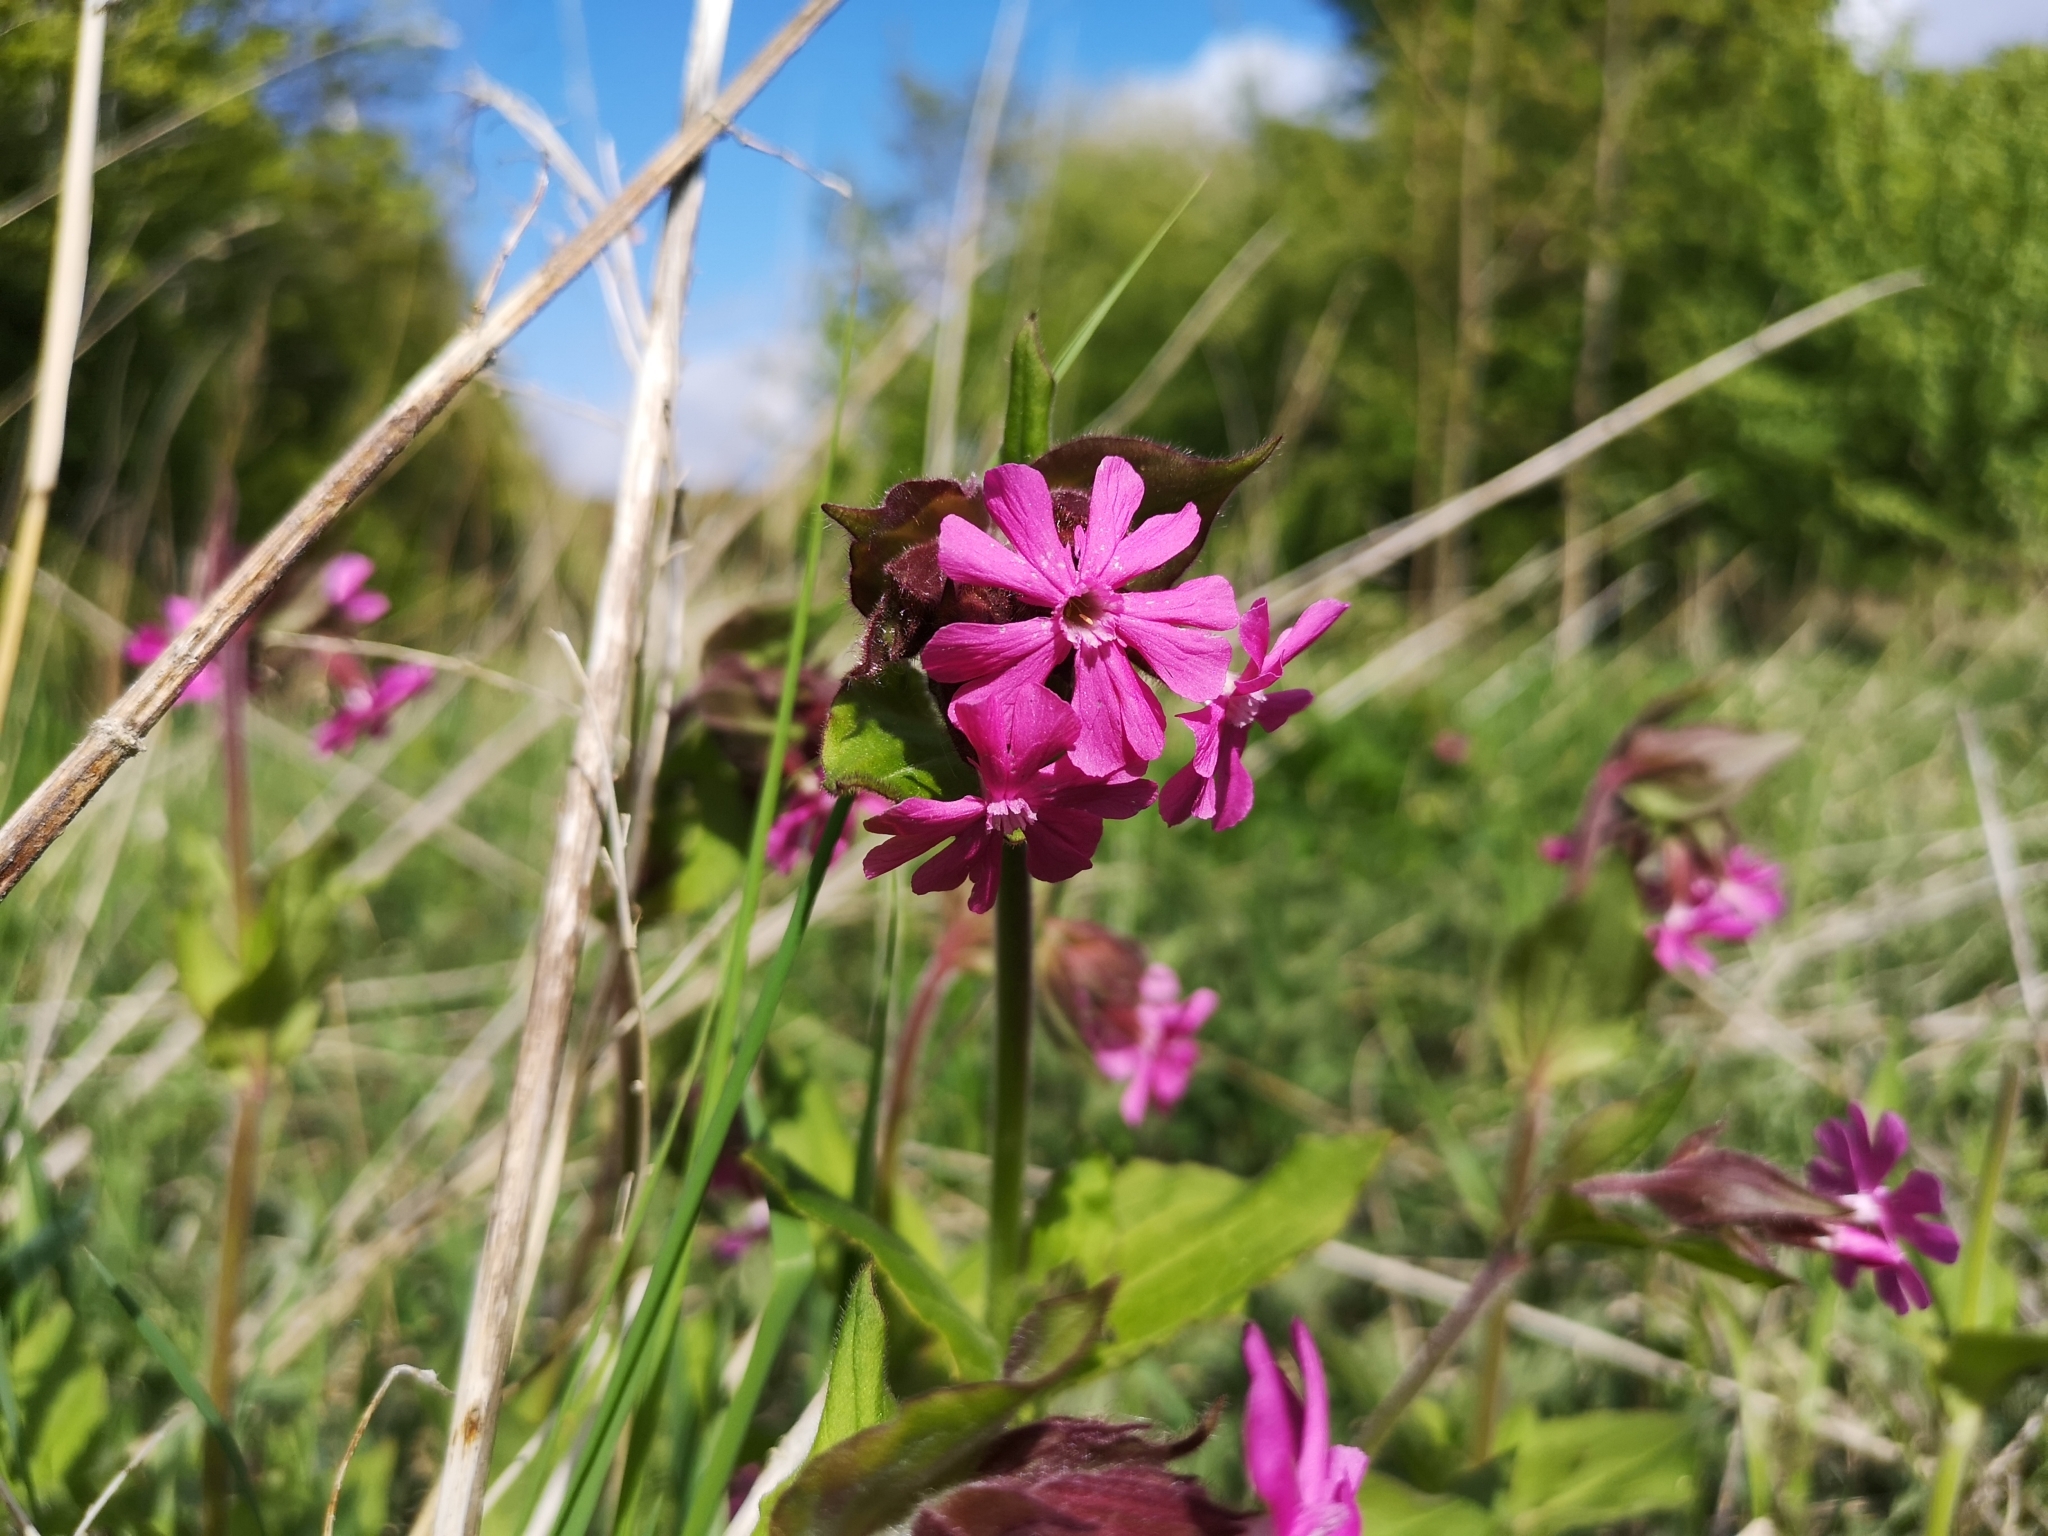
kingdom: Plantae
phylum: Tracheophyta
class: Magnoliopsida
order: Caryophyllales
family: Caryophyllaceae
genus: Silene
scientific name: Silene dioica
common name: Red campion
